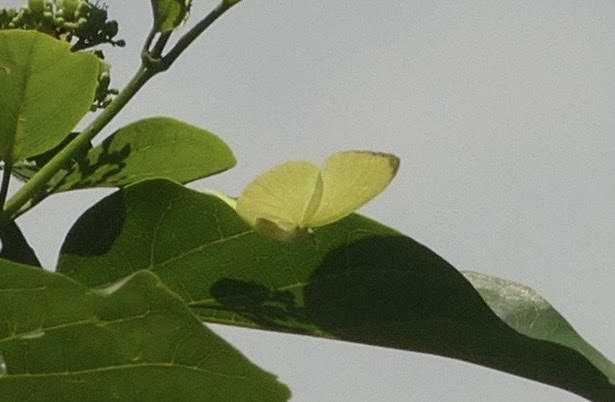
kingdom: Animalia
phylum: Arthropoda
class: Insecta
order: Lepidoptera
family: Pieridae
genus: Gandaca
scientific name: Gandaca butyrosa
